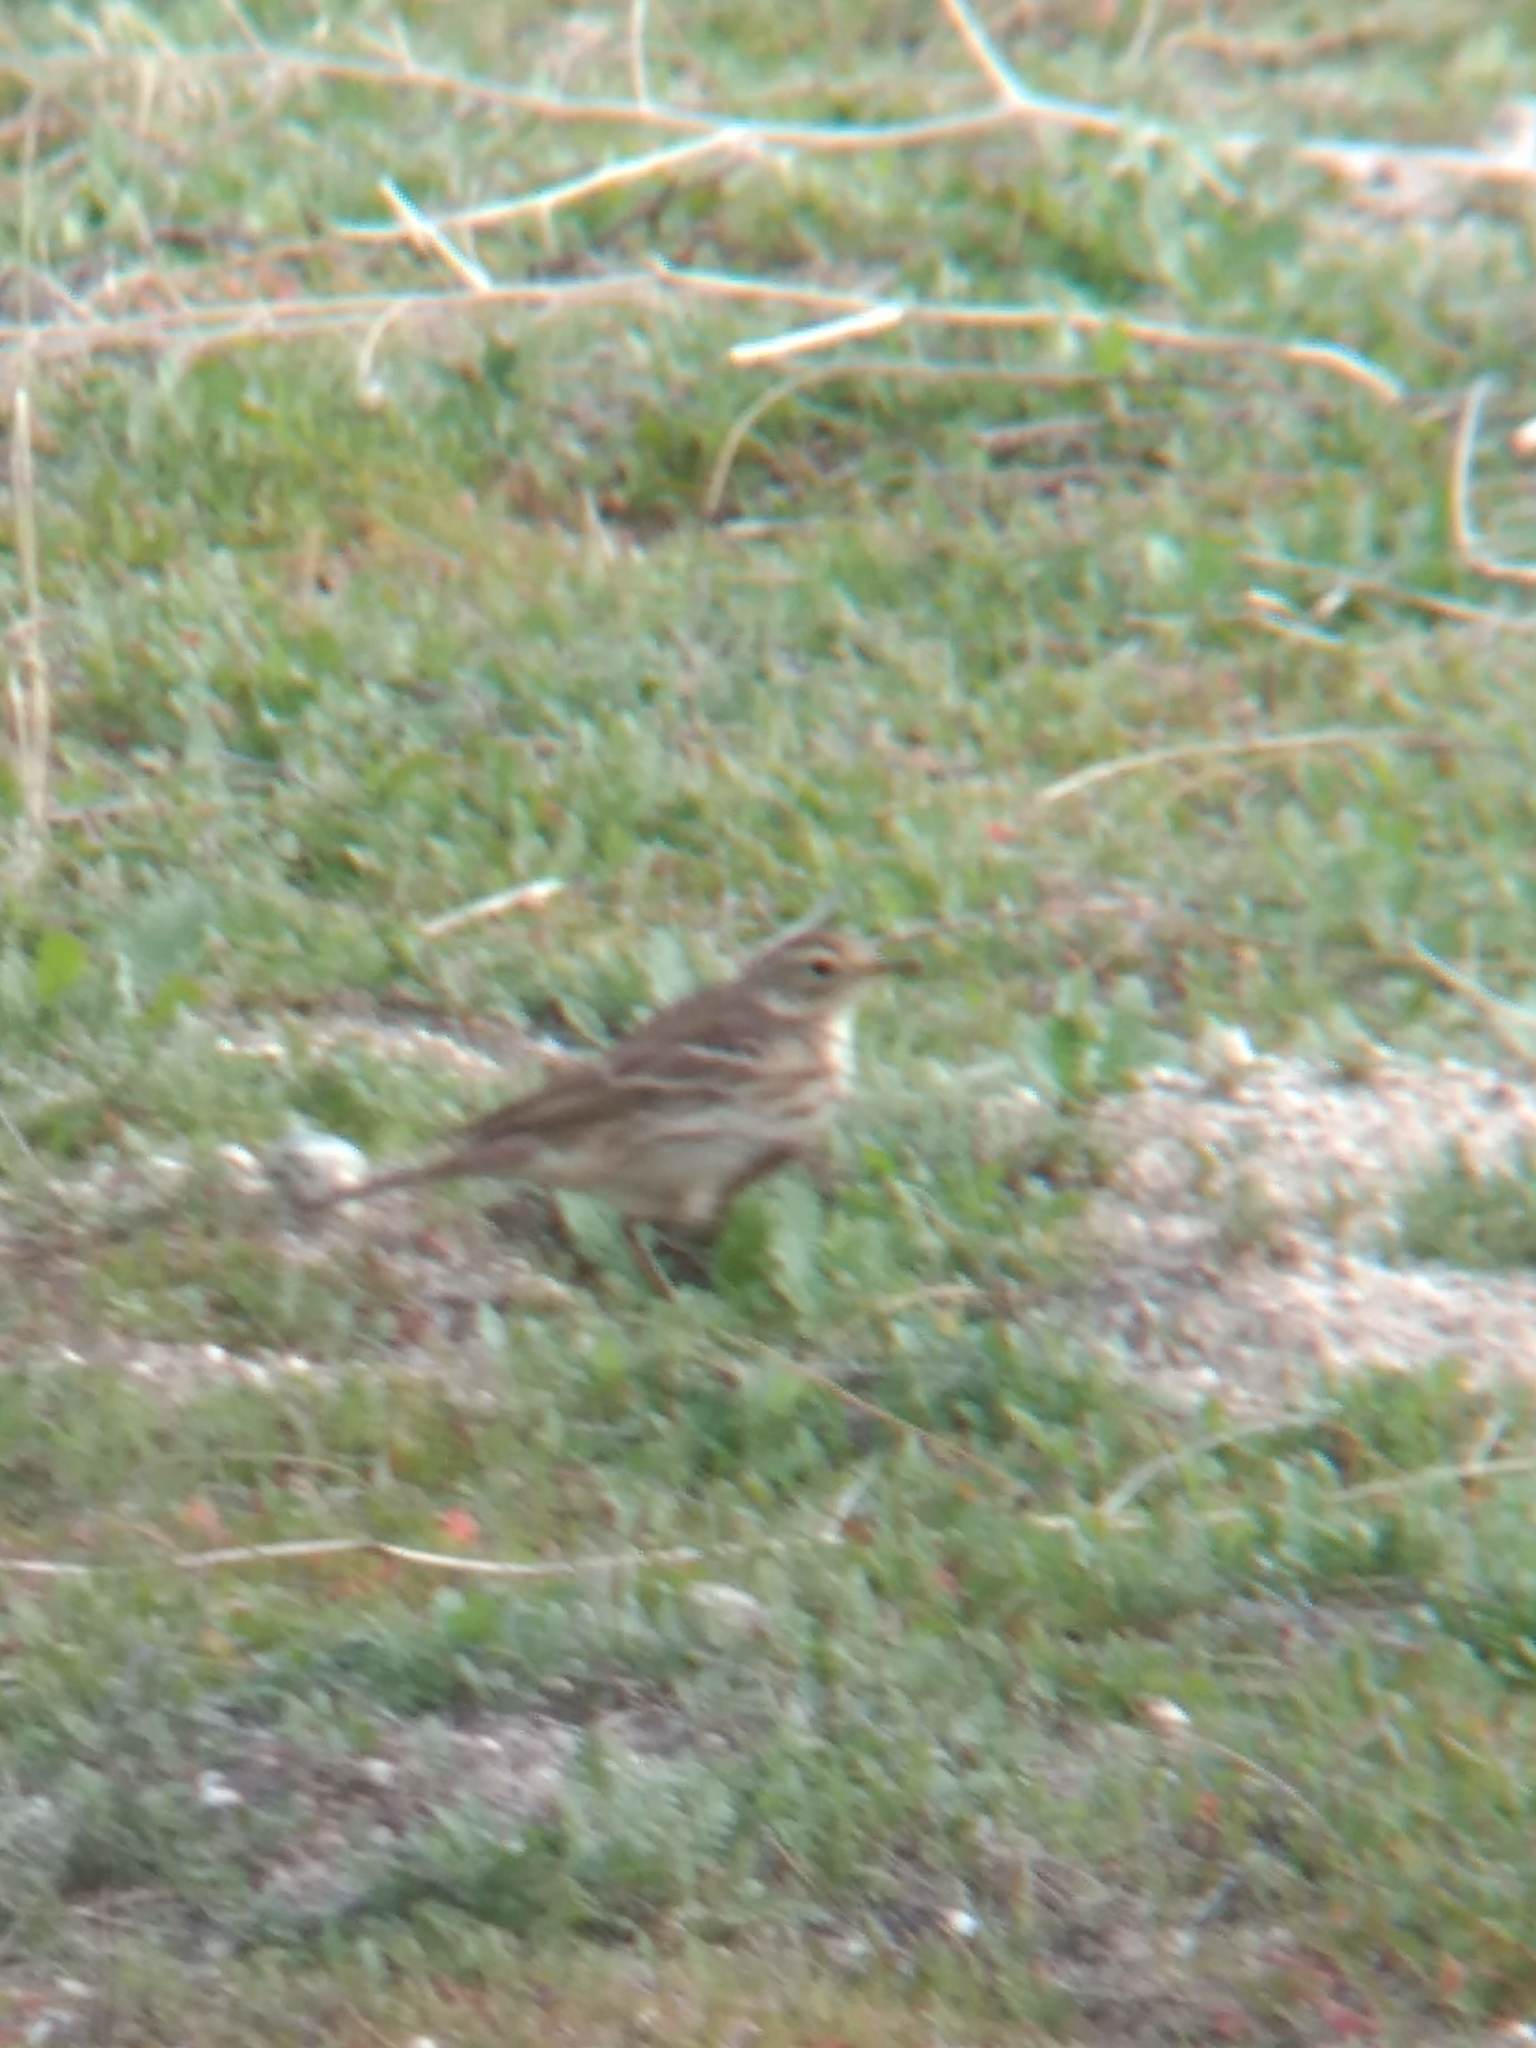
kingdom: Animalia
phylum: Chordata
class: Aves
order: Passeriformes
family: Motacillidae
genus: Anthus
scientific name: Anthus rubescens
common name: Buff-bellied pipit
